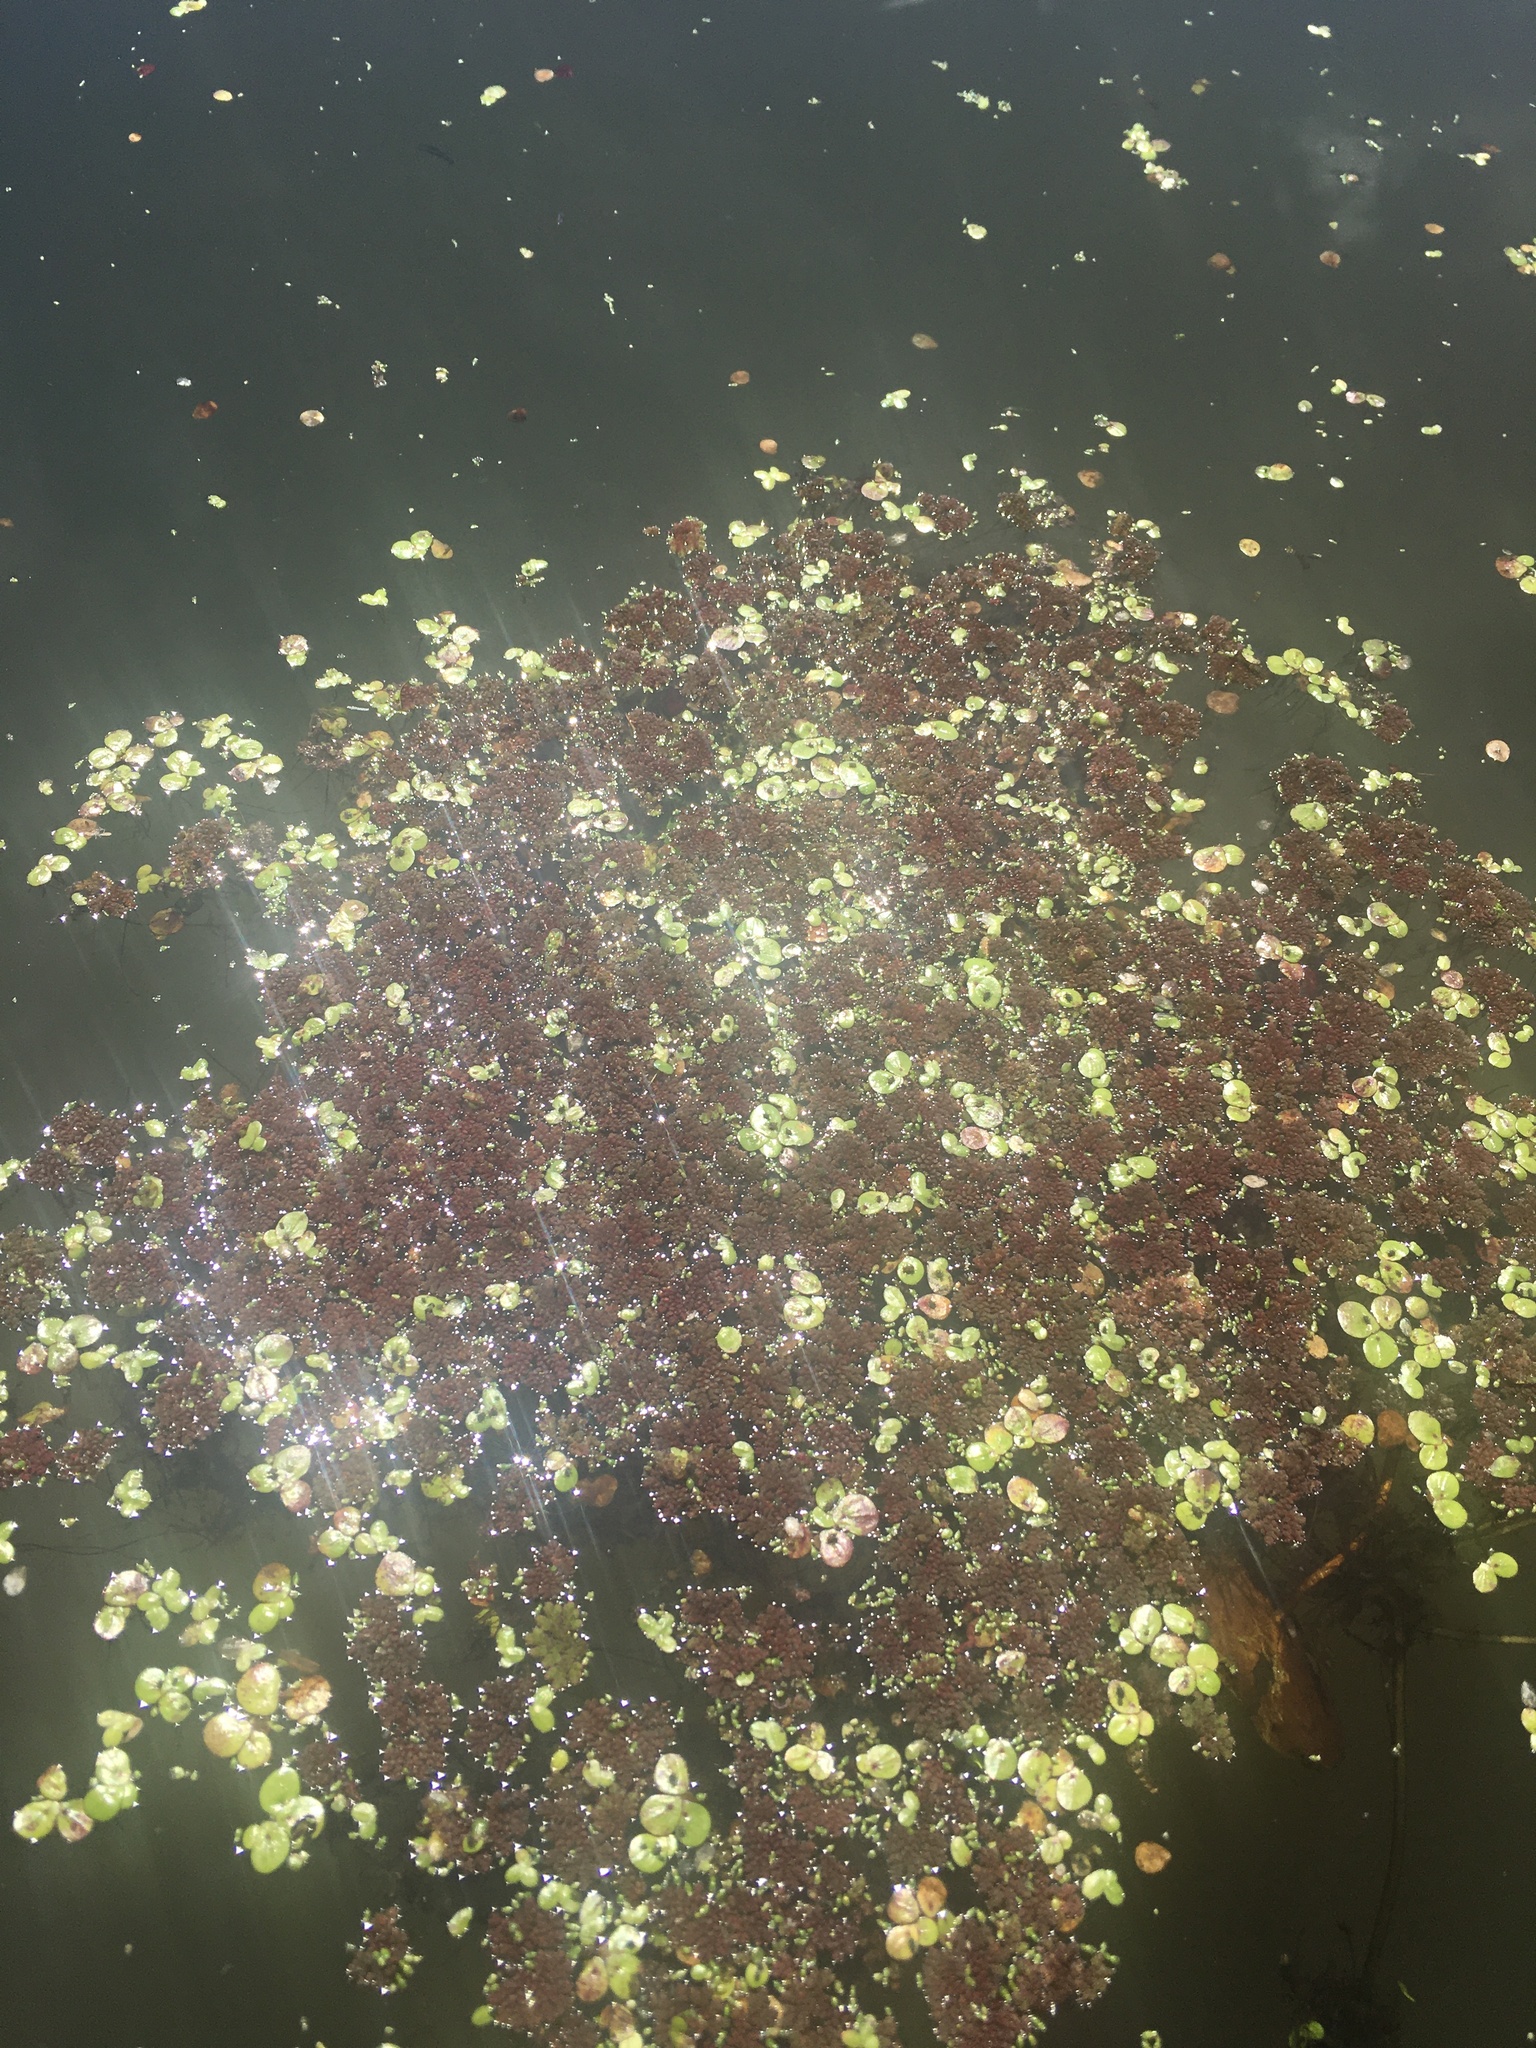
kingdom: Plantae
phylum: Tracheophyta
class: Liliopsida
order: Alismatales
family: Araceae
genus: Spirodela
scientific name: Spirodela polyrhiza
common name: Great duckweed
